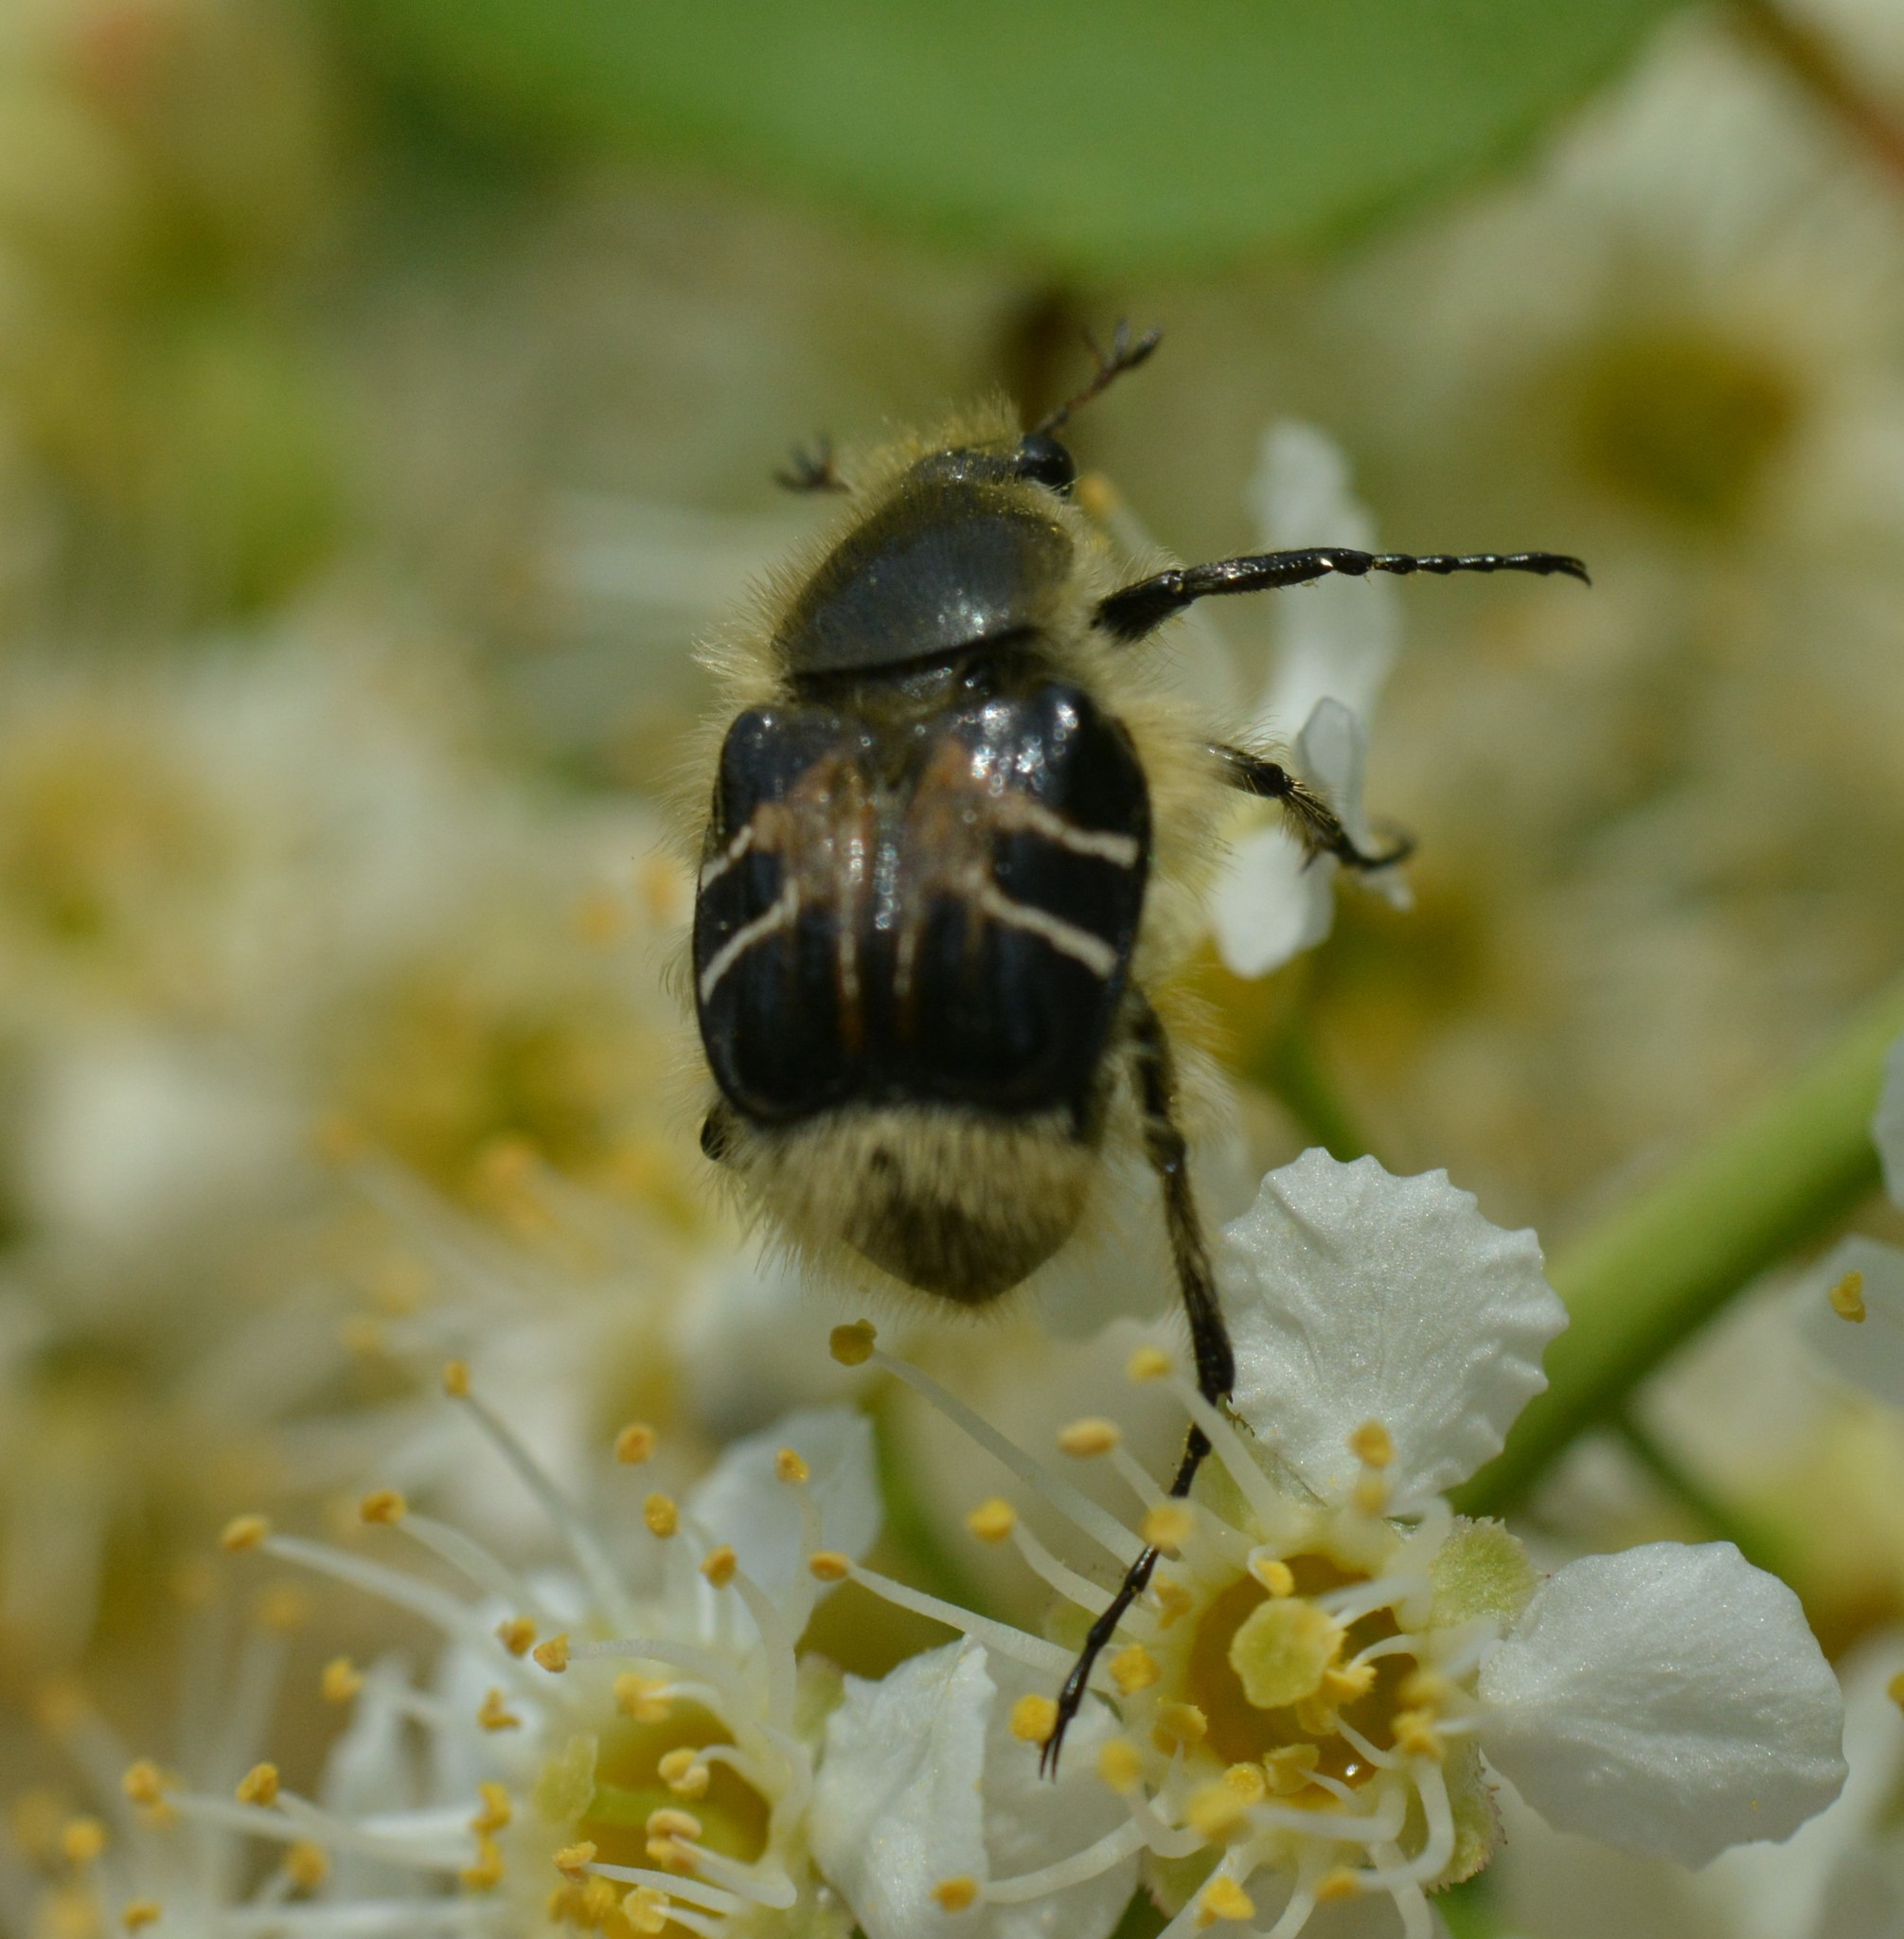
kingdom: Animalia
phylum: Arthropoda
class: Insecta
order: Coleoptera
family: Scarabaeidae
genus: Trichiotinus
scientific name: Trichiotinus assimilis
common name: Bee-mimic beetle
